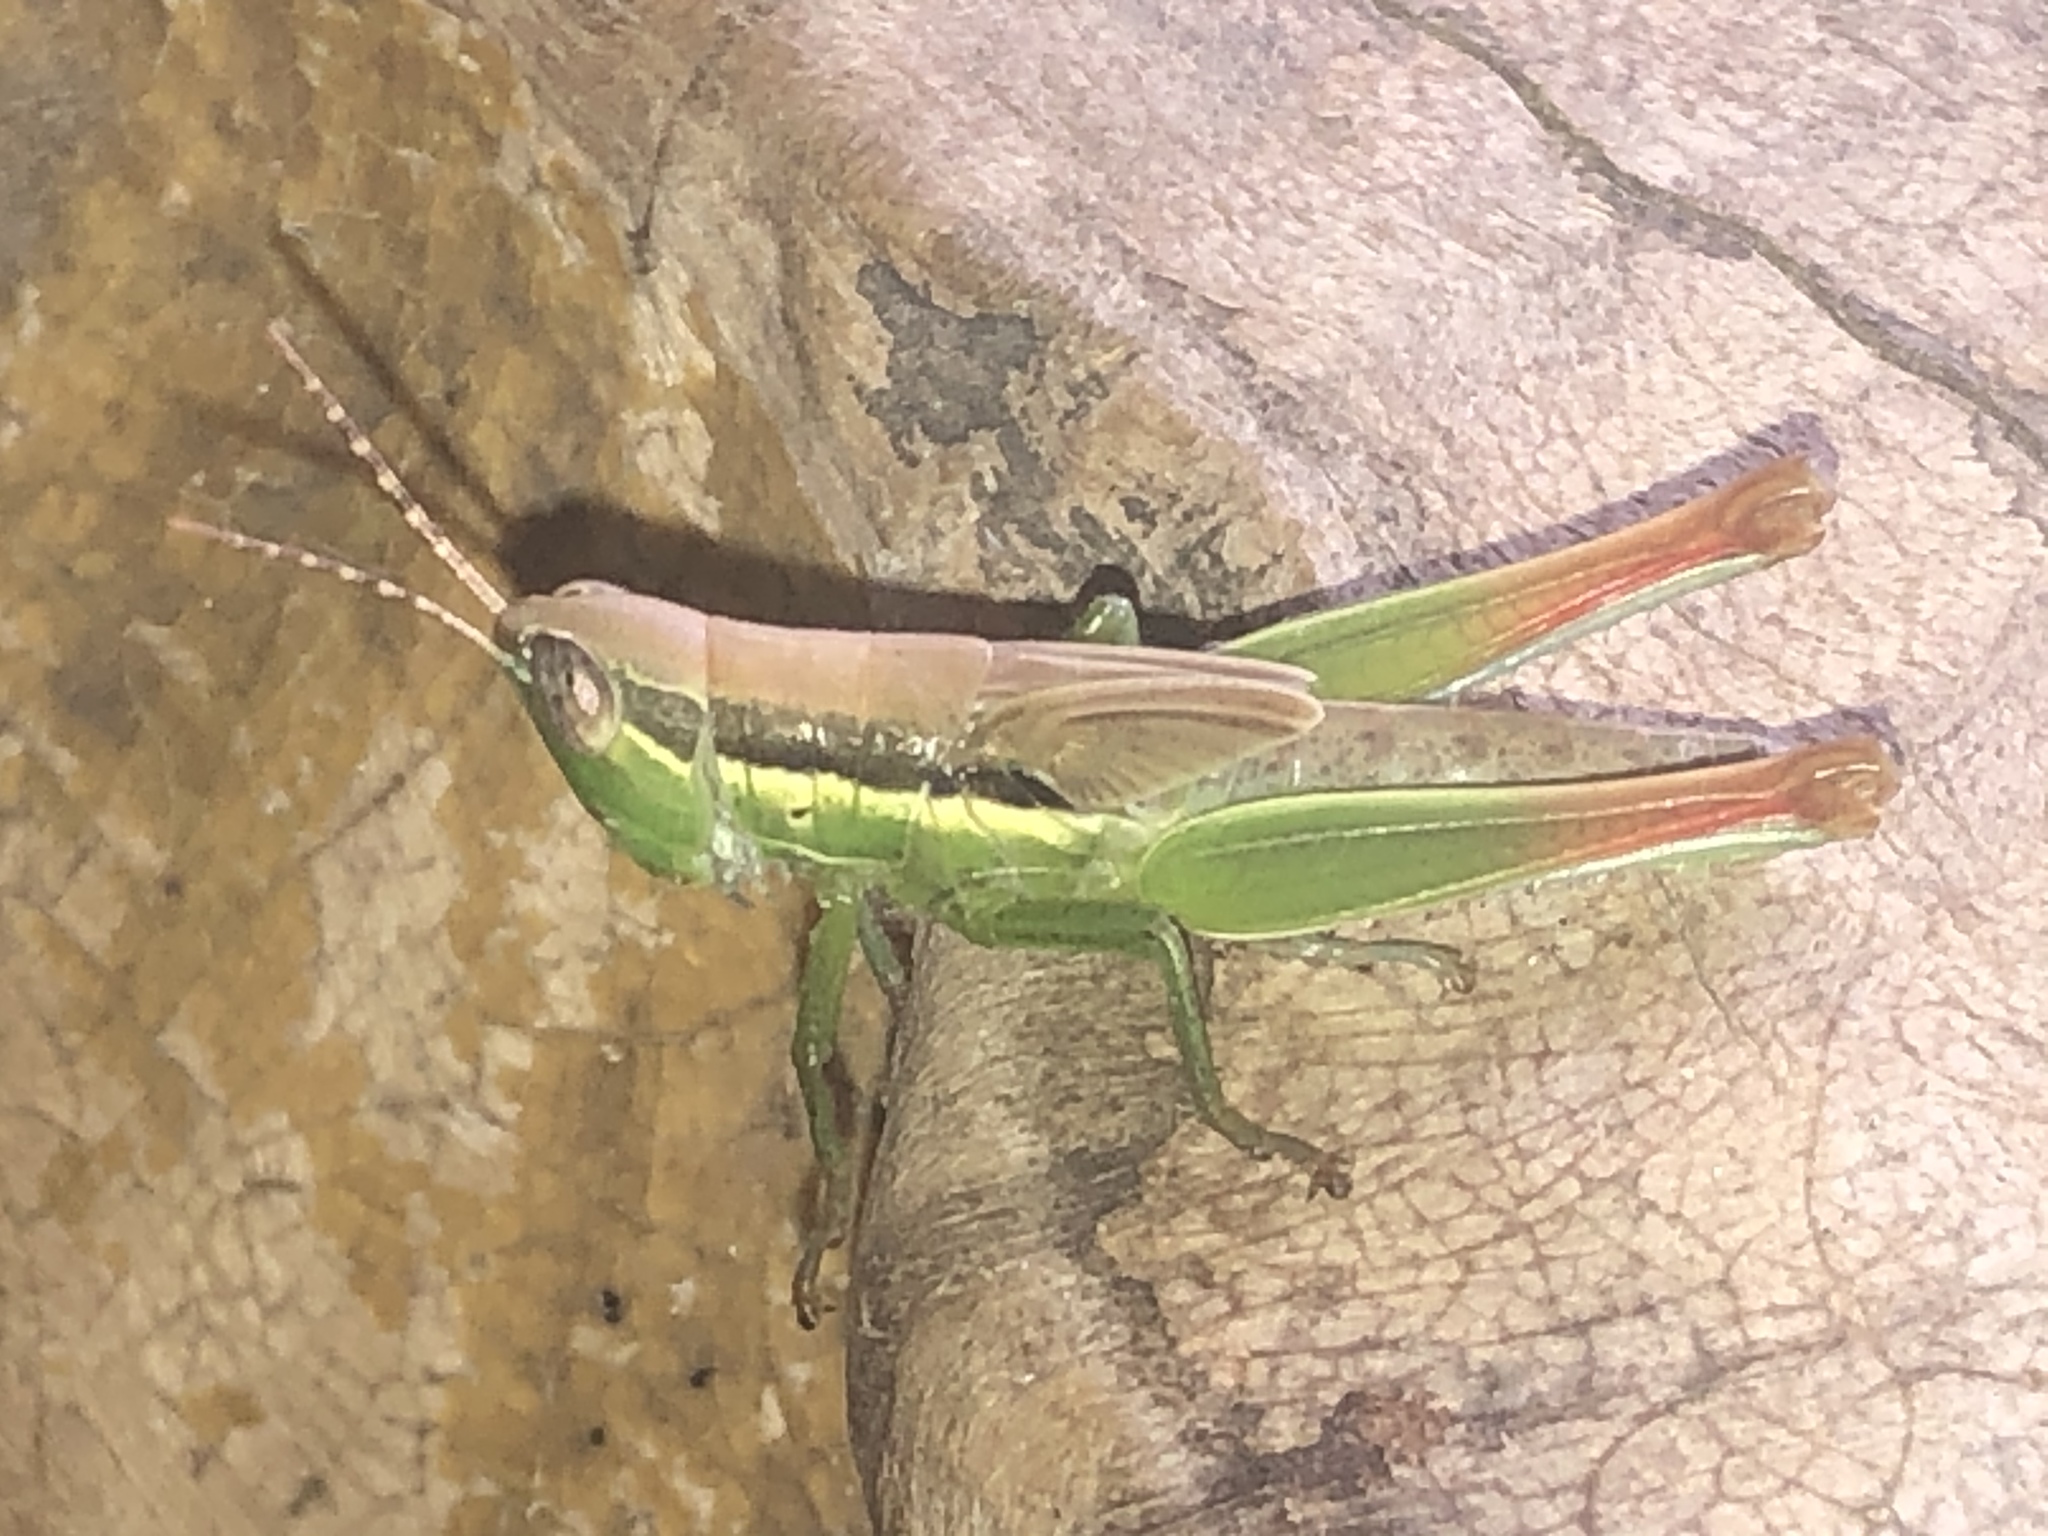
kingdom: Animalia
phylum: Arthropoda
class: Insecta
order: Orthoptera
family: Acrididae
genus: Bermius
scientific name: Bermius brachycerus
